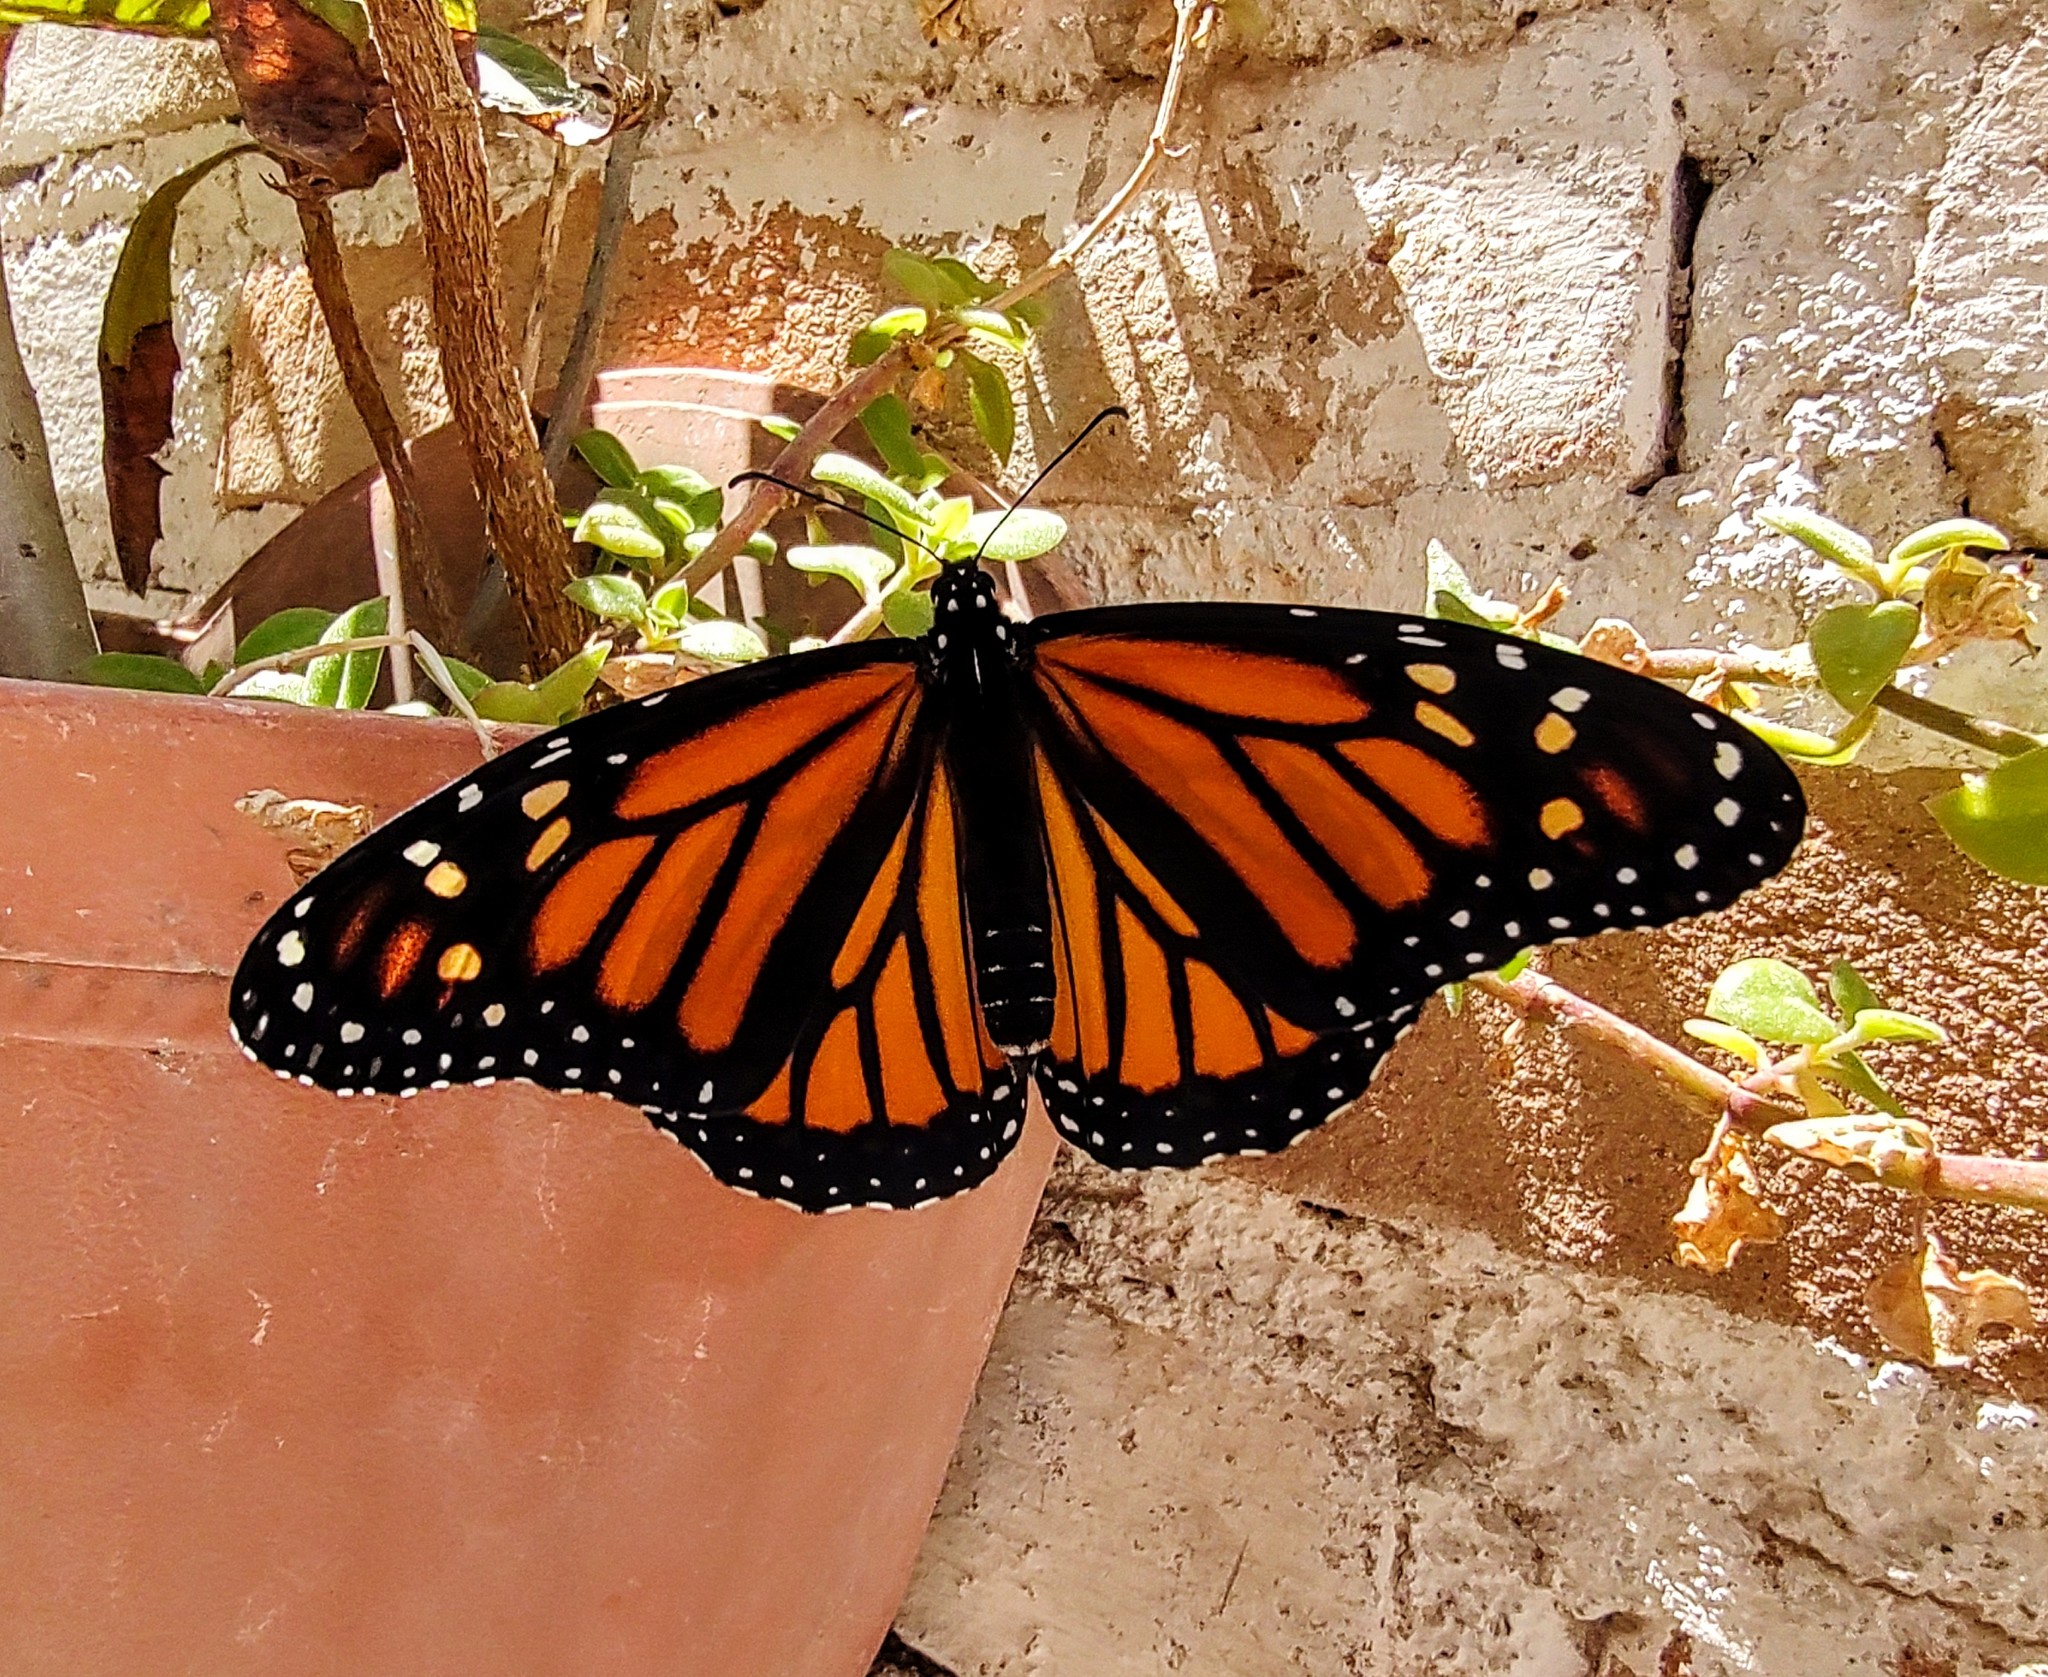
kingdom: Animalia
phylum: Arthropoda
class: Insecta
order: Lepidoptera
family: Nymphalidae
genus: Danaus
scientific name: Danaus plexippus
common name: Monarch
